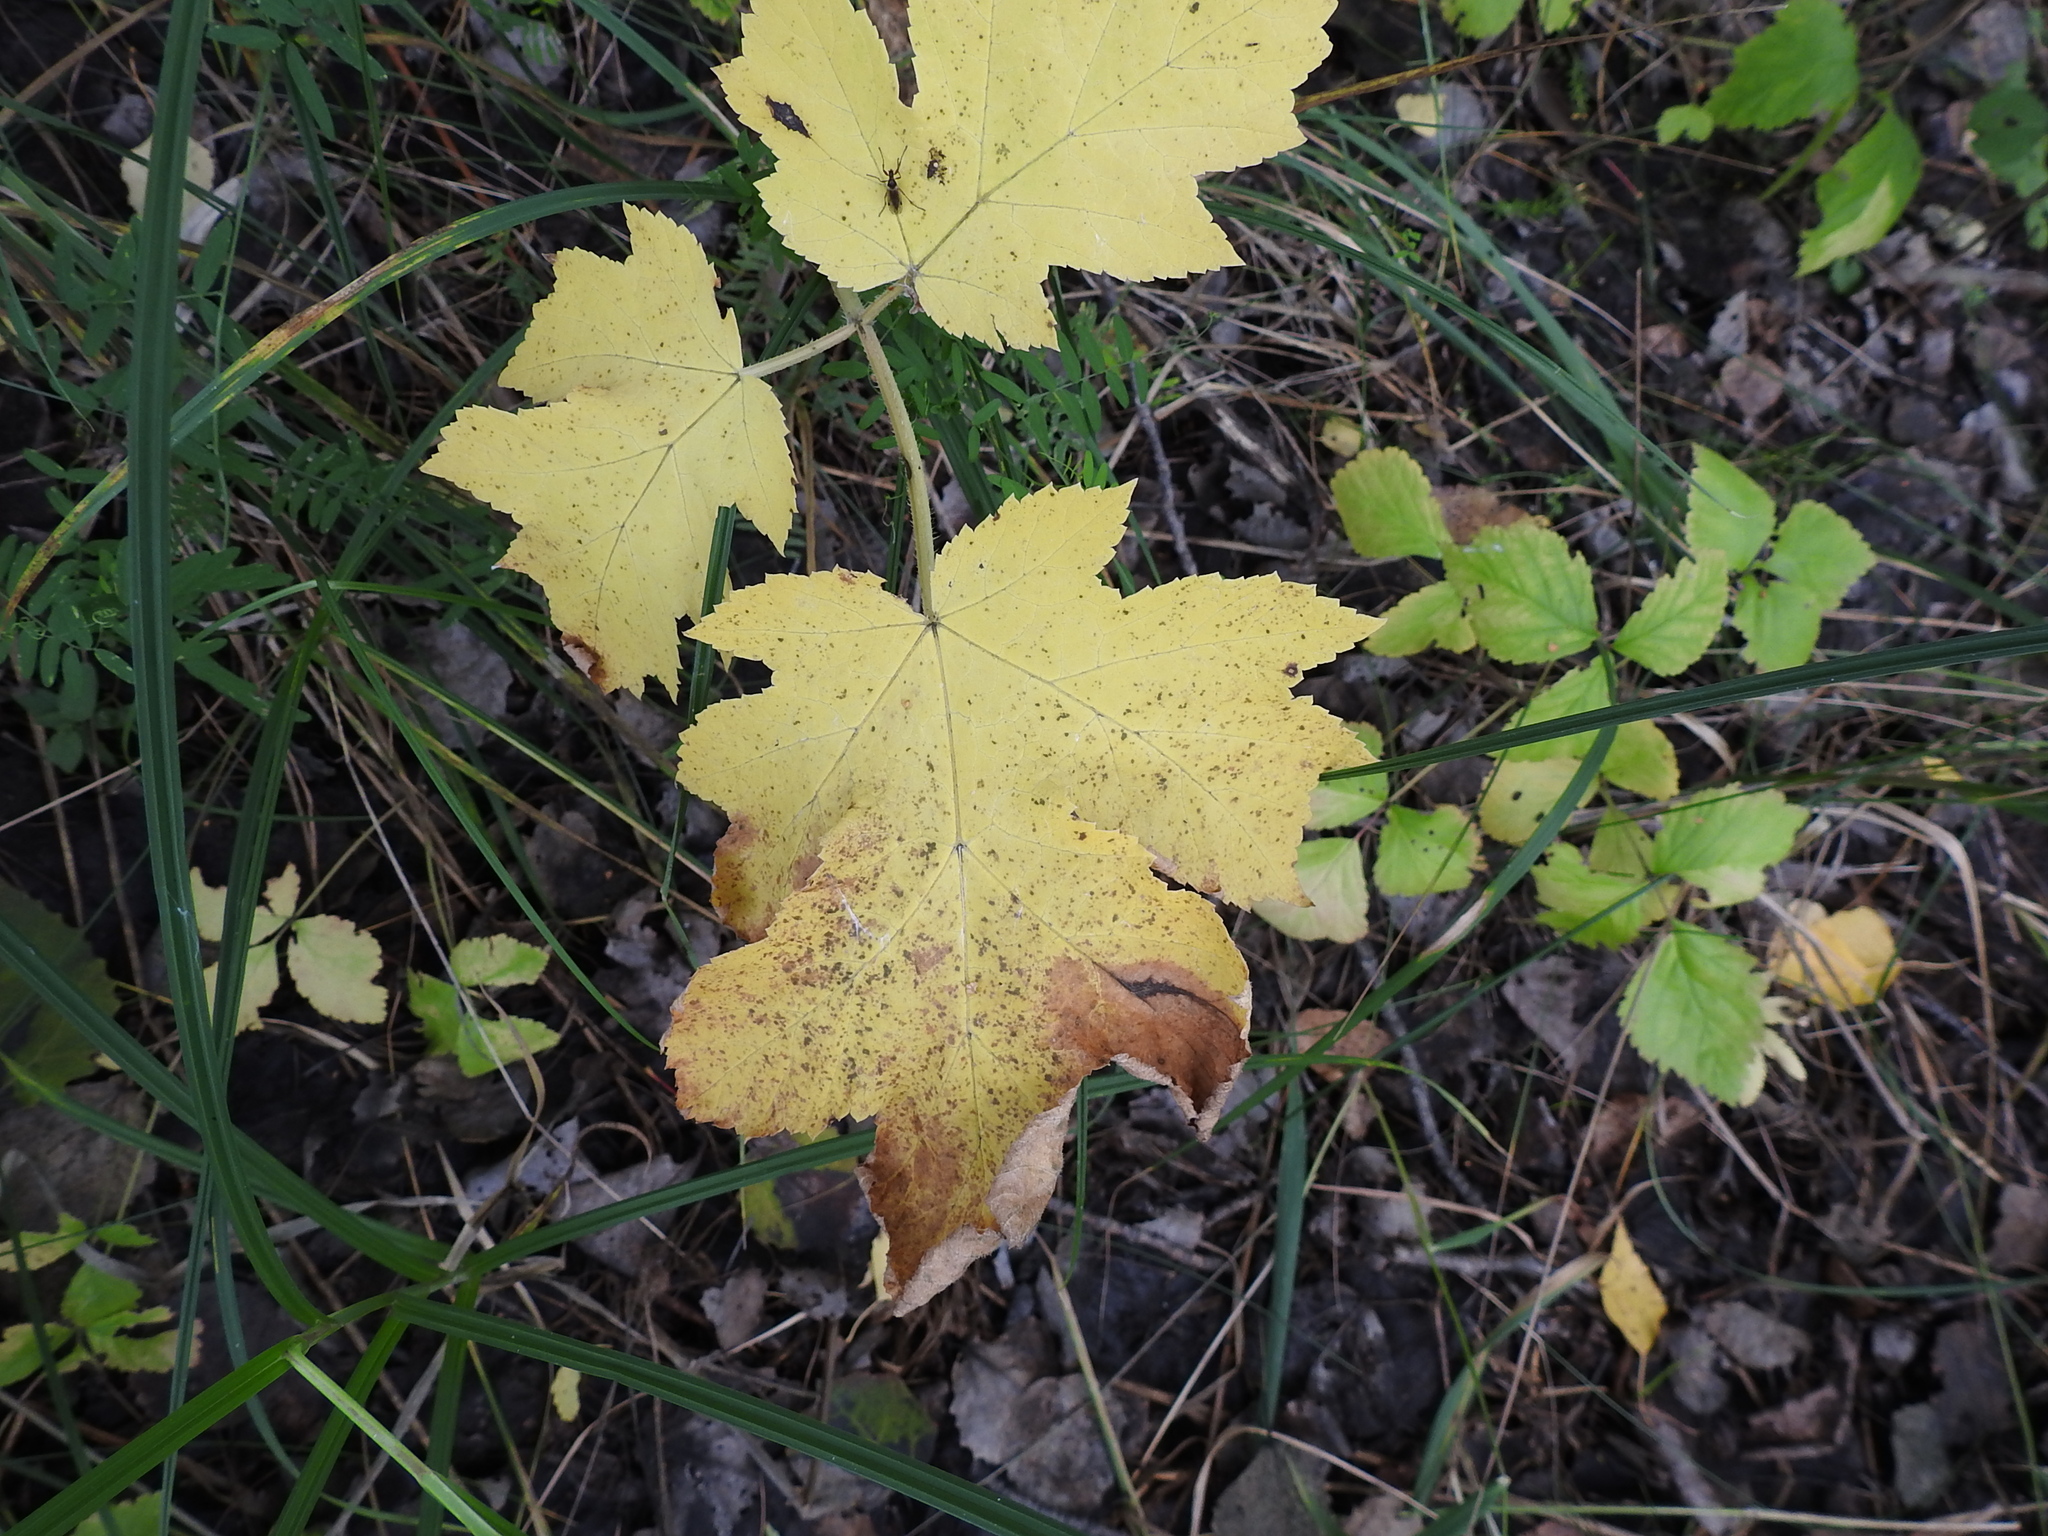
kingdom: Plantae
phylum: Tracheophyta
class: Magnoliopsida
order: Apiales
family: Apiaceae
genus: Heracleum
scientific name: Heracleum sphondylium
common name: Hogweed
